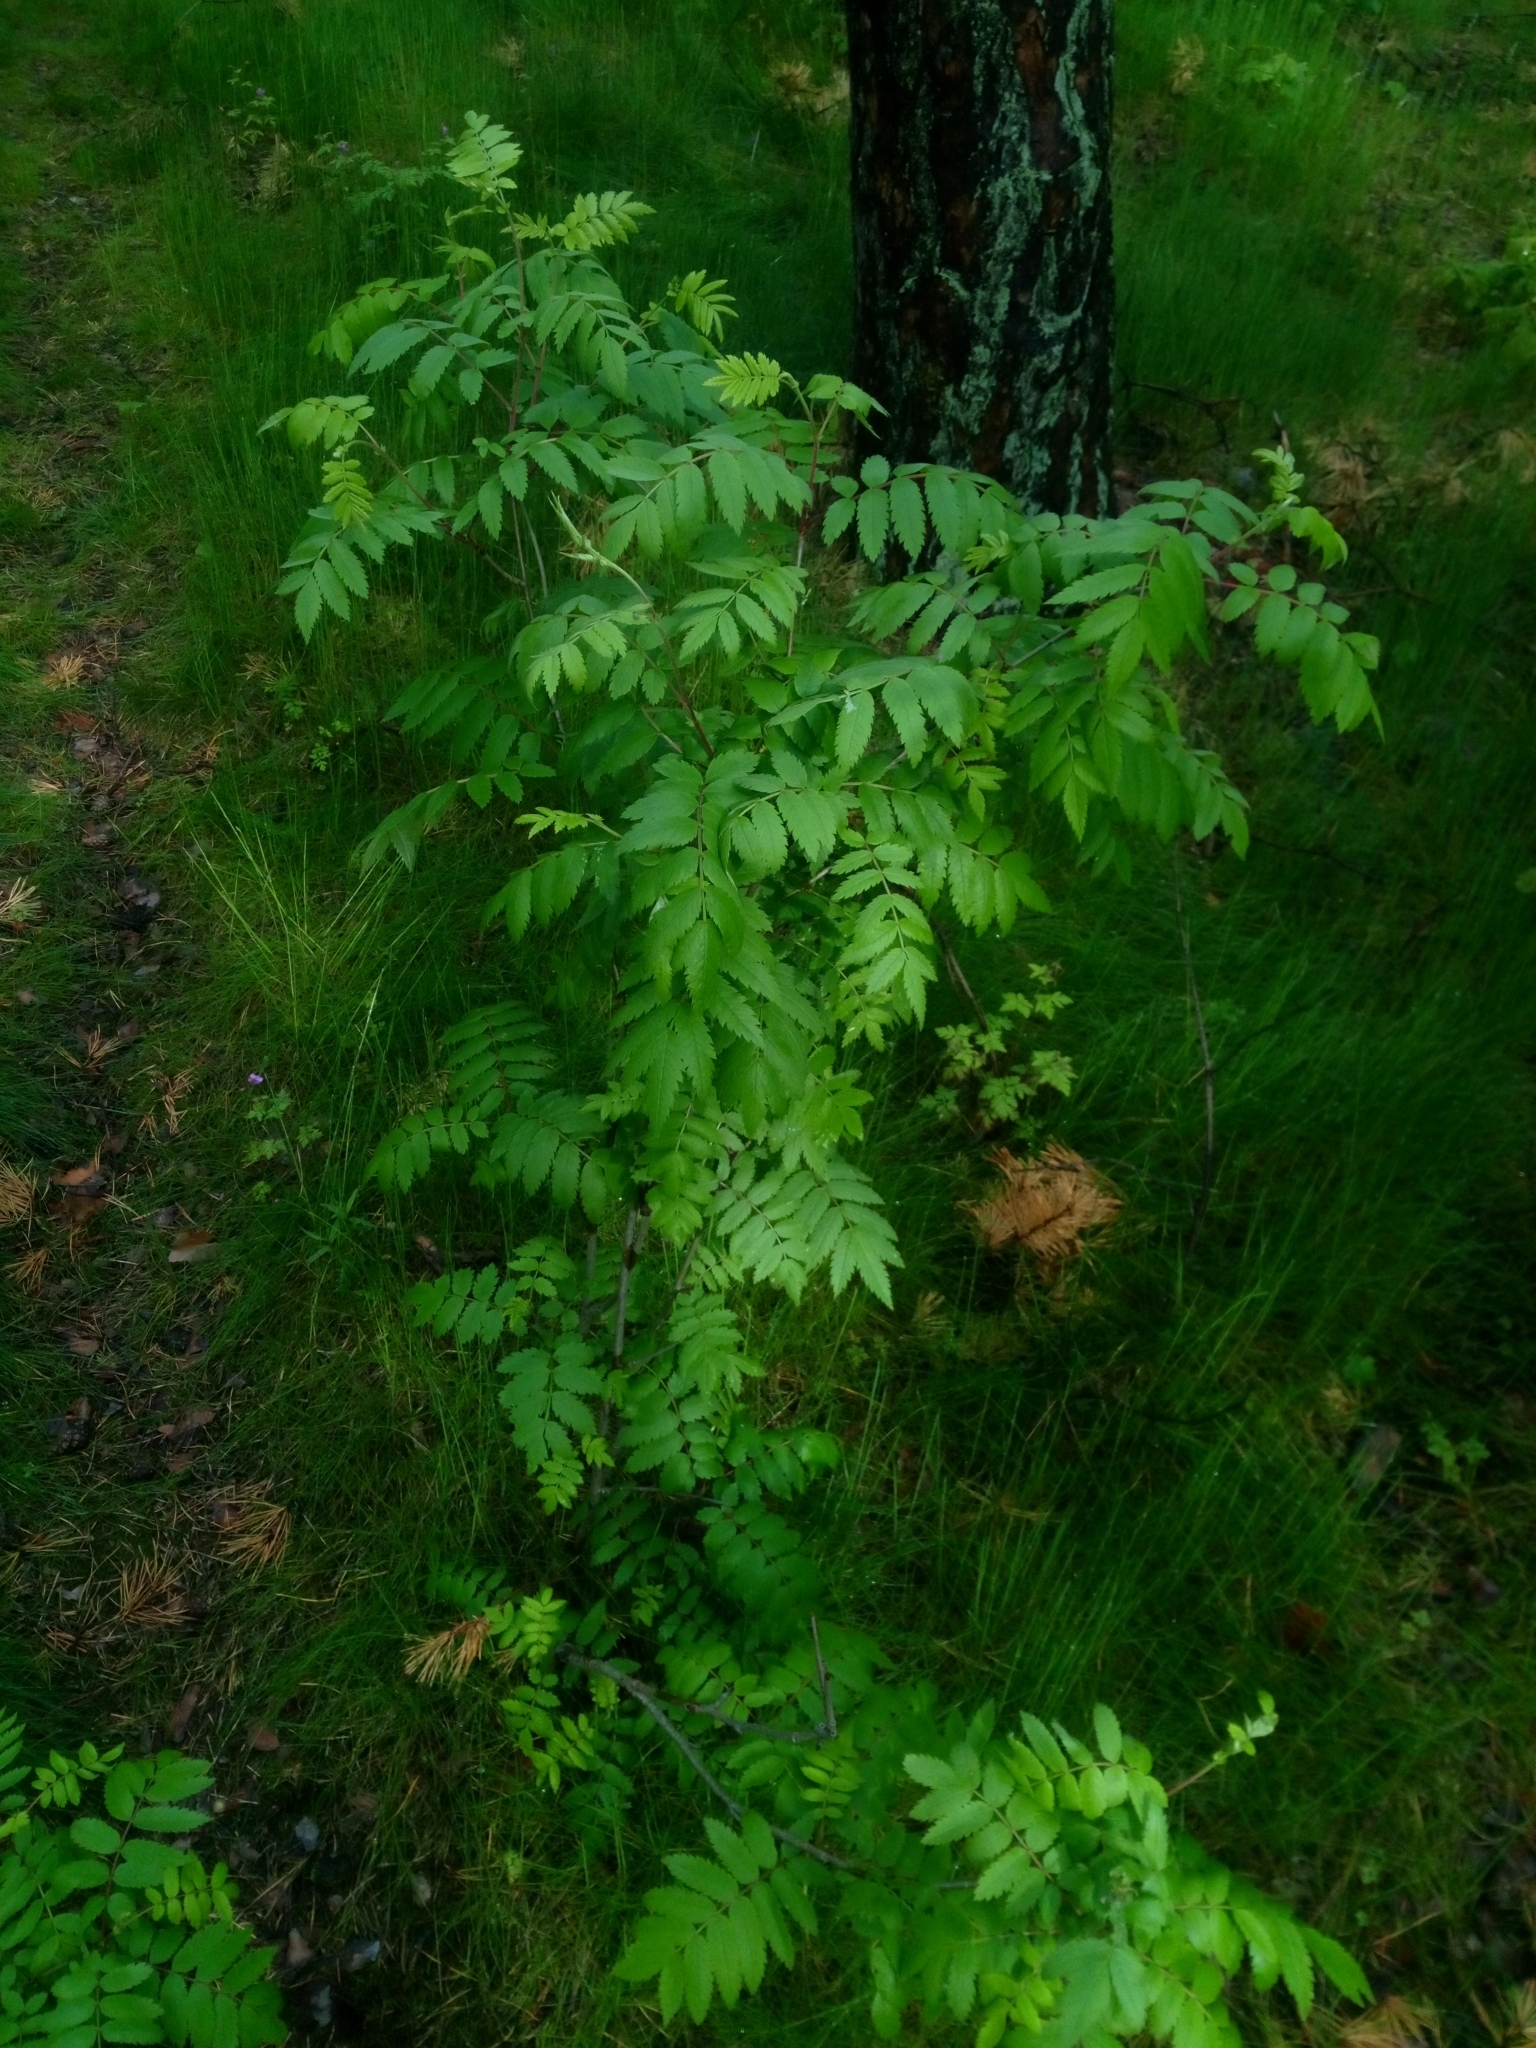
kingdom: Plantae
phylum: Tracheophyta
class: Magnoliopsida
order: Rosales
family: Rosaceae
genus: Sorbus
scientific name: Sorbus aucuparia
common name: Rowan
